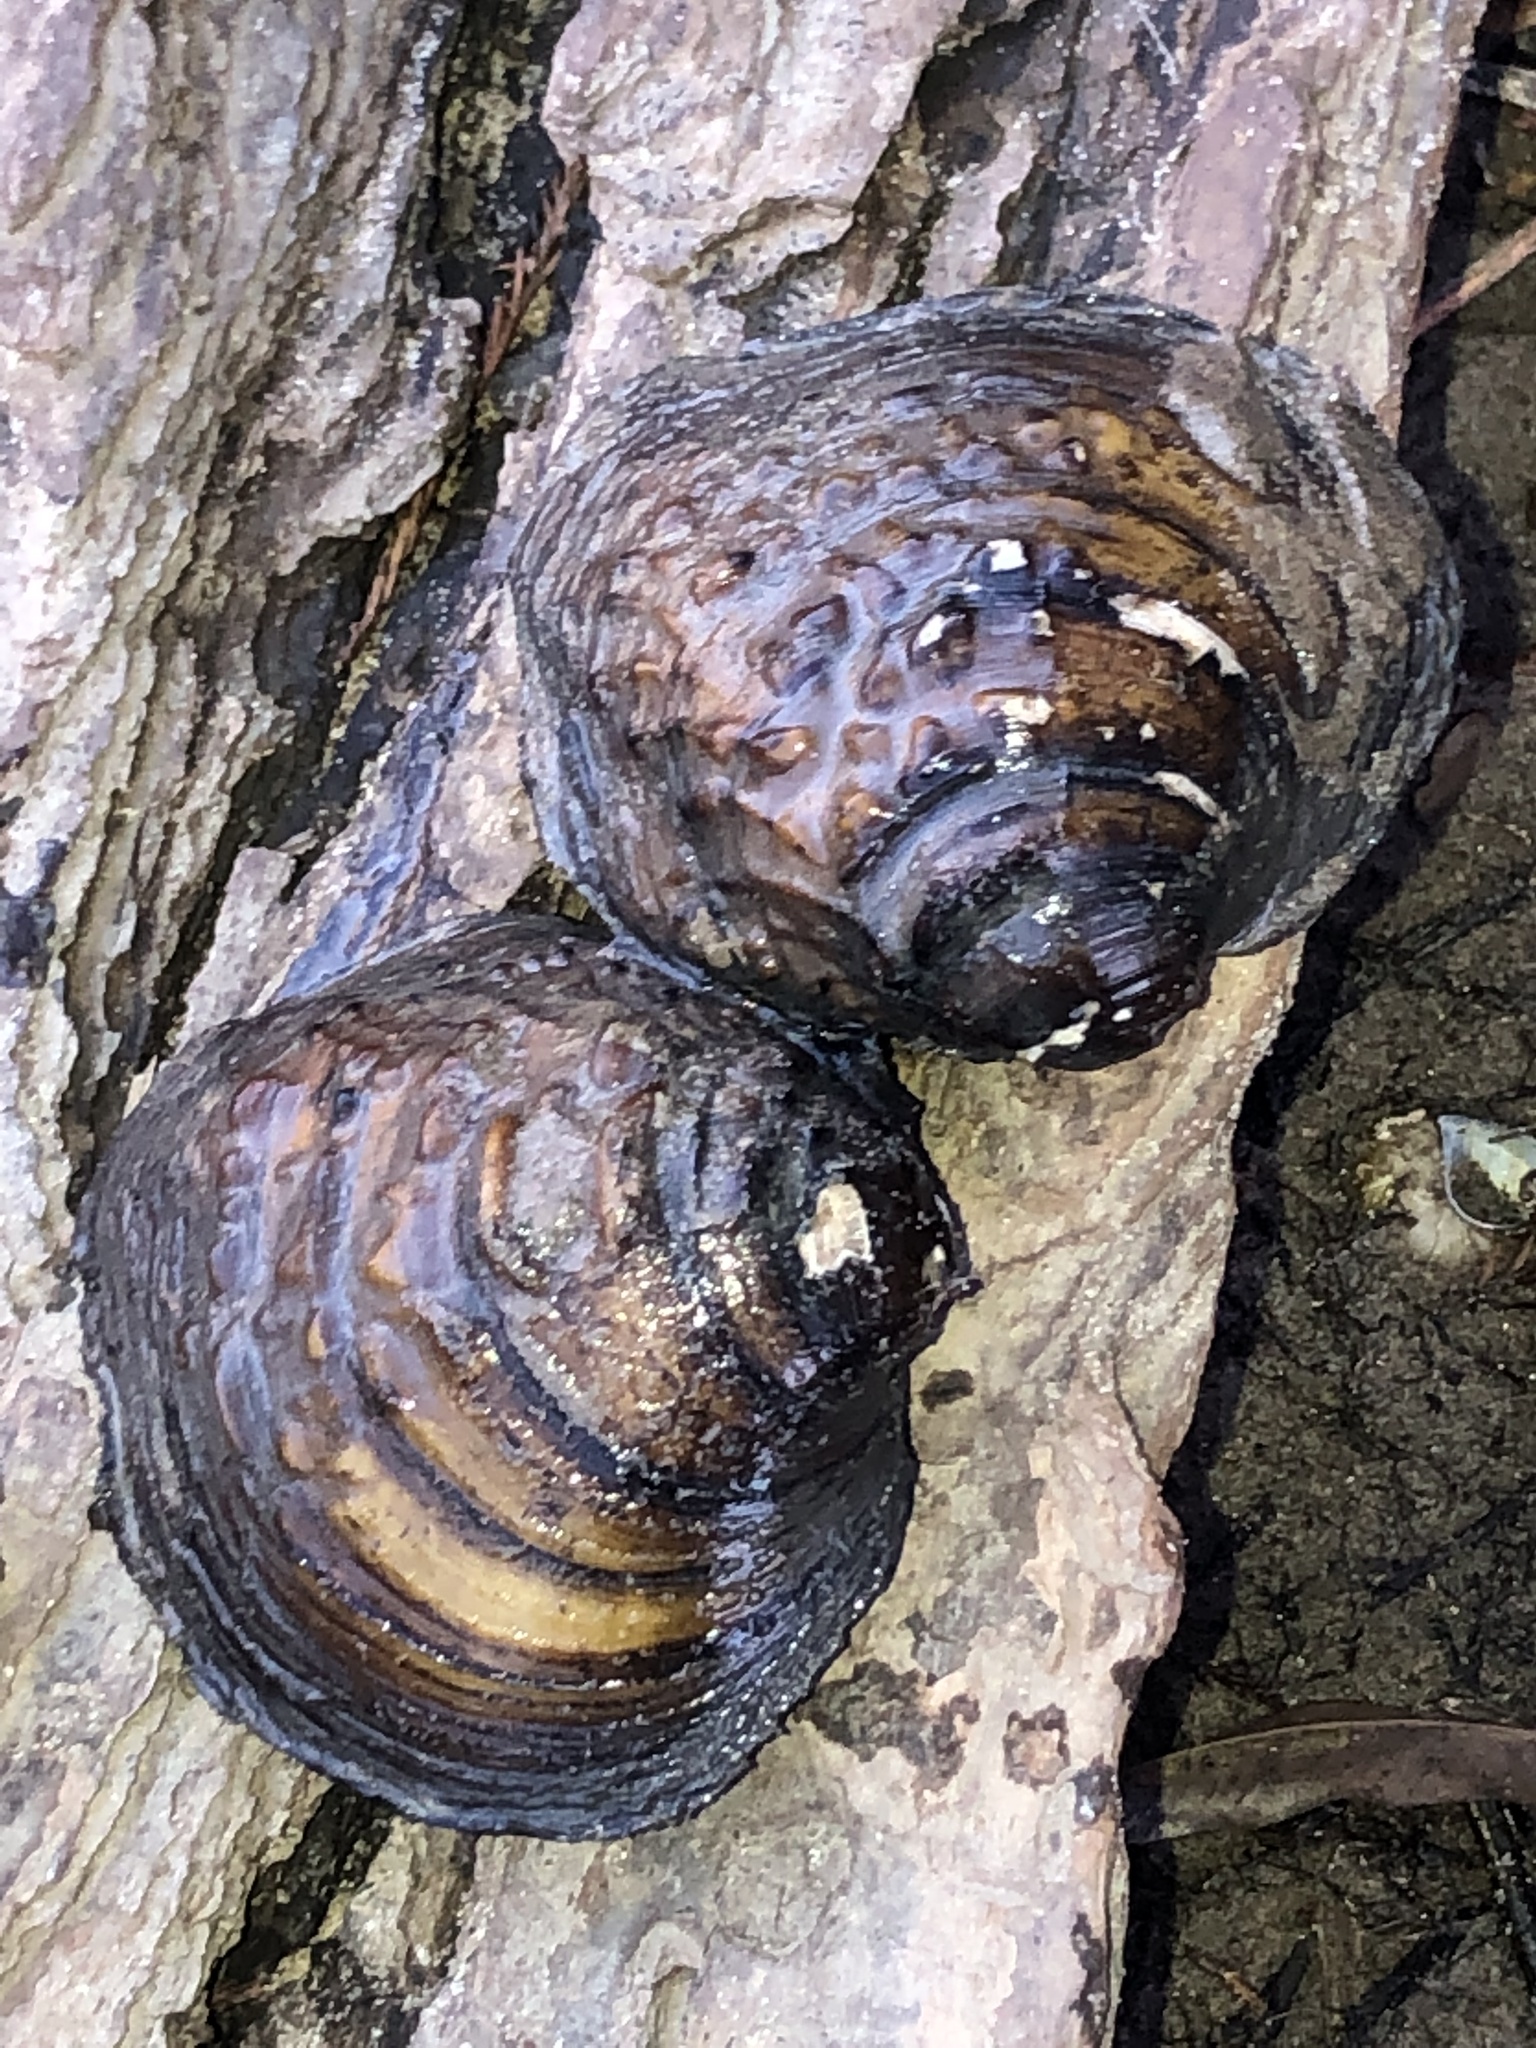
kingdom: Animalia
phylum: Mollusca
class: Bivalvia
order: Unionida
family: Unionidae
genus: Cyclonaias
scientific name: Cyclonaias pustulosa
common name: Pimpleback
